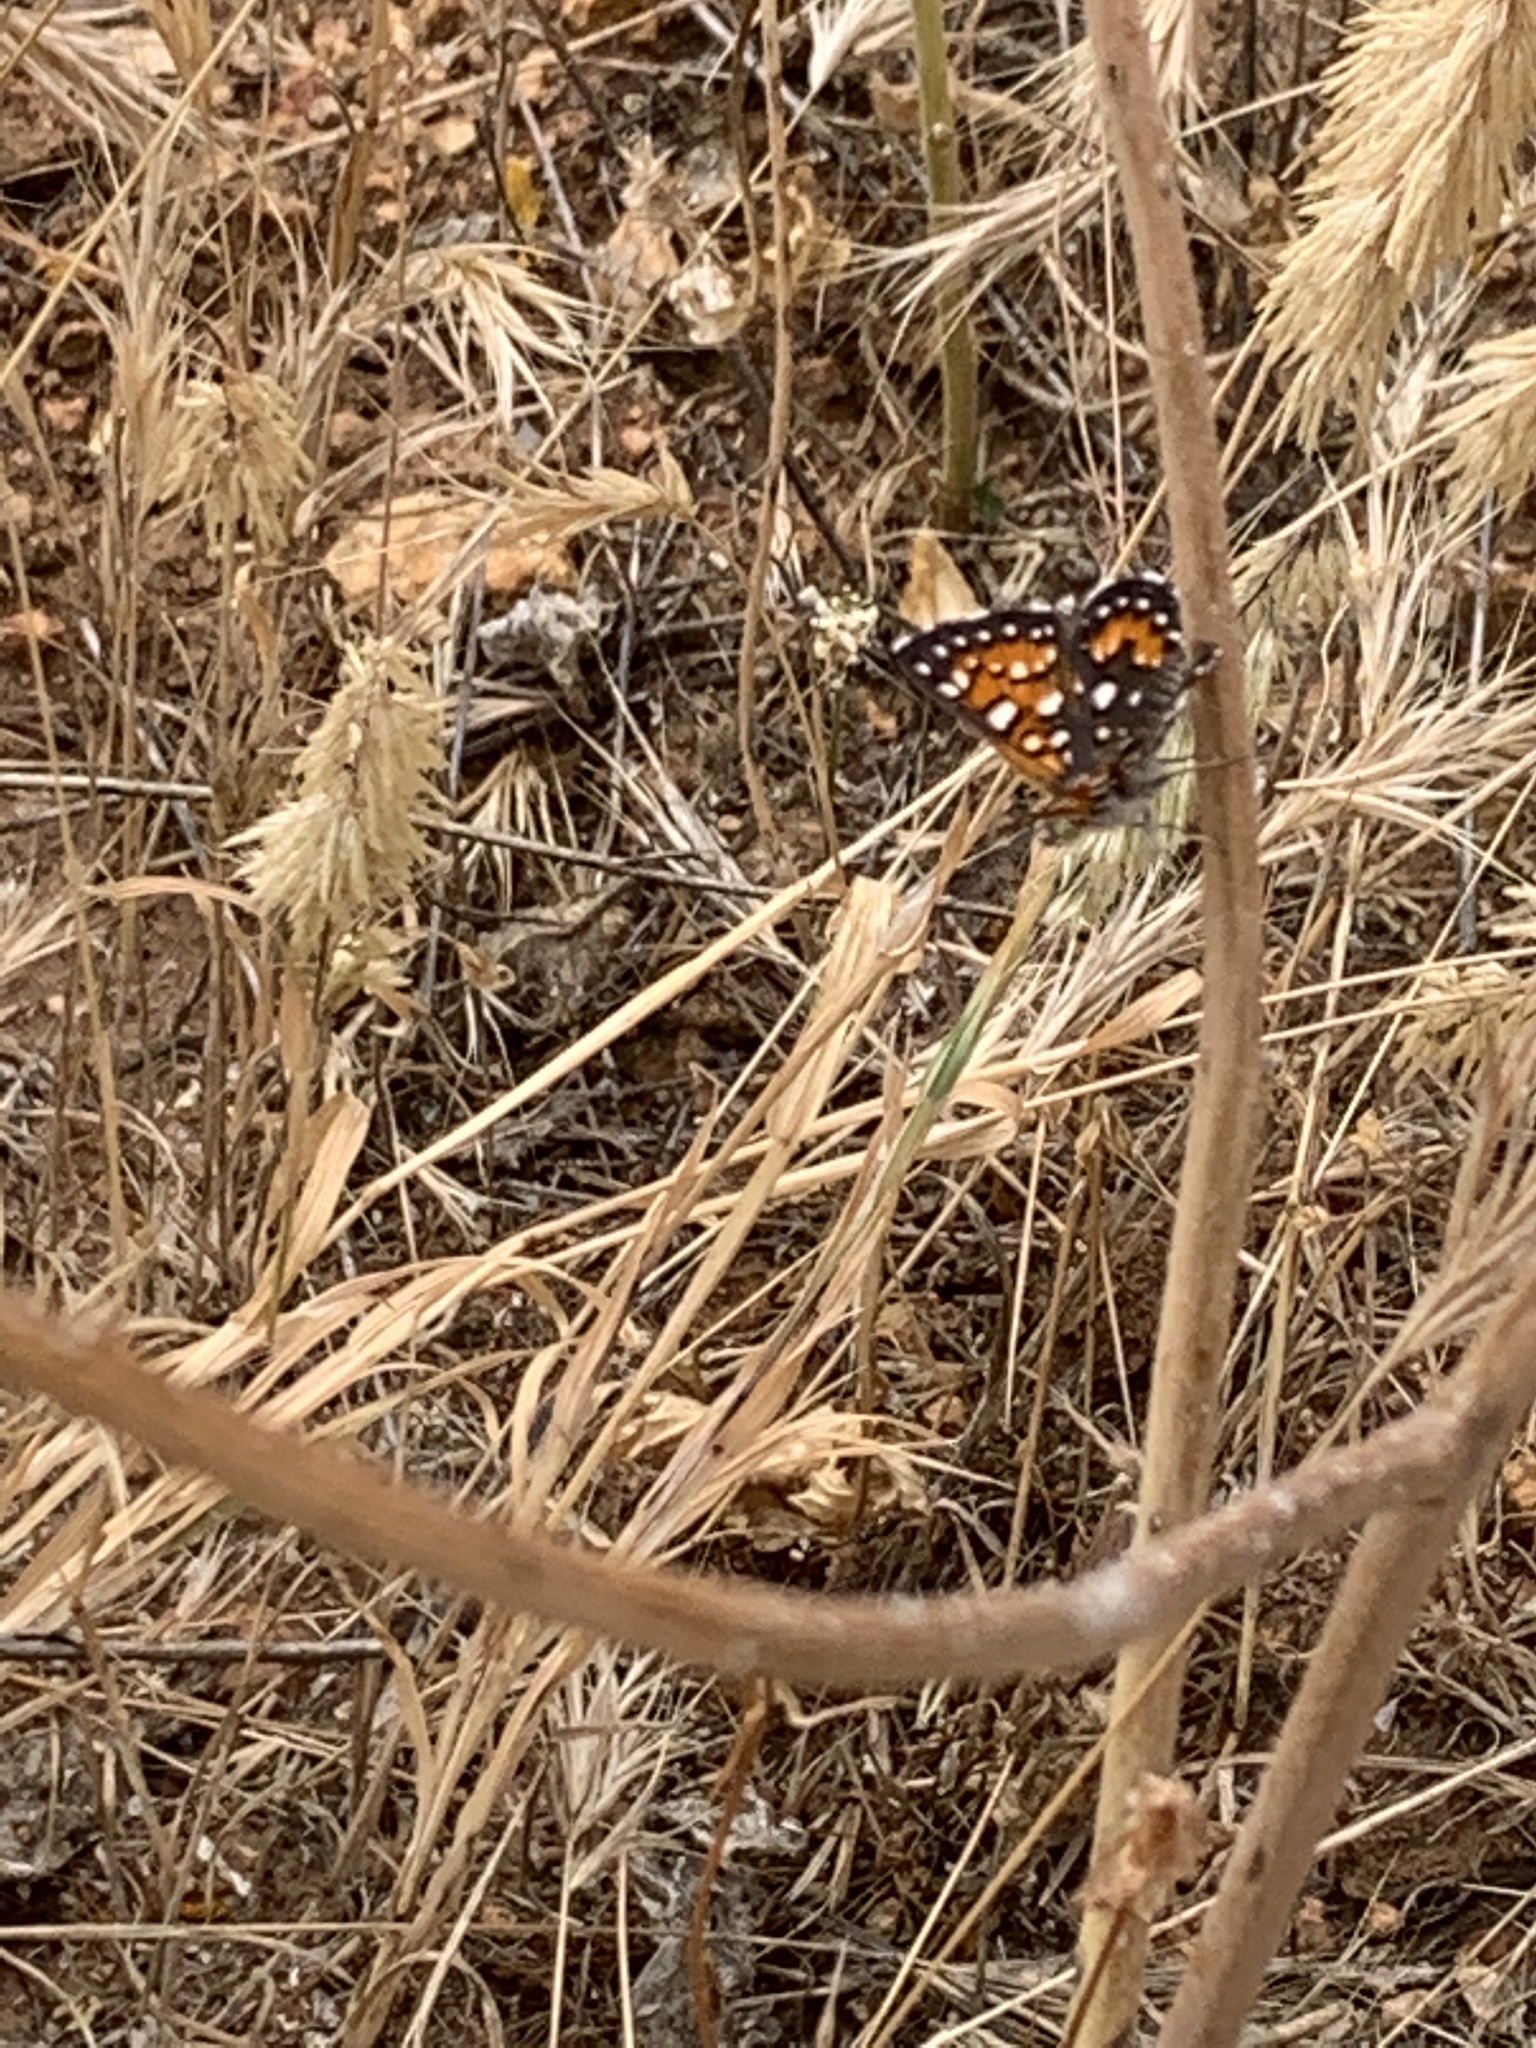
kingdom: Animalia
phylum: Arthropoda
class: Insecta
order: Lepidoptera
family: Riodinidae
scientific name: Riodinidae
